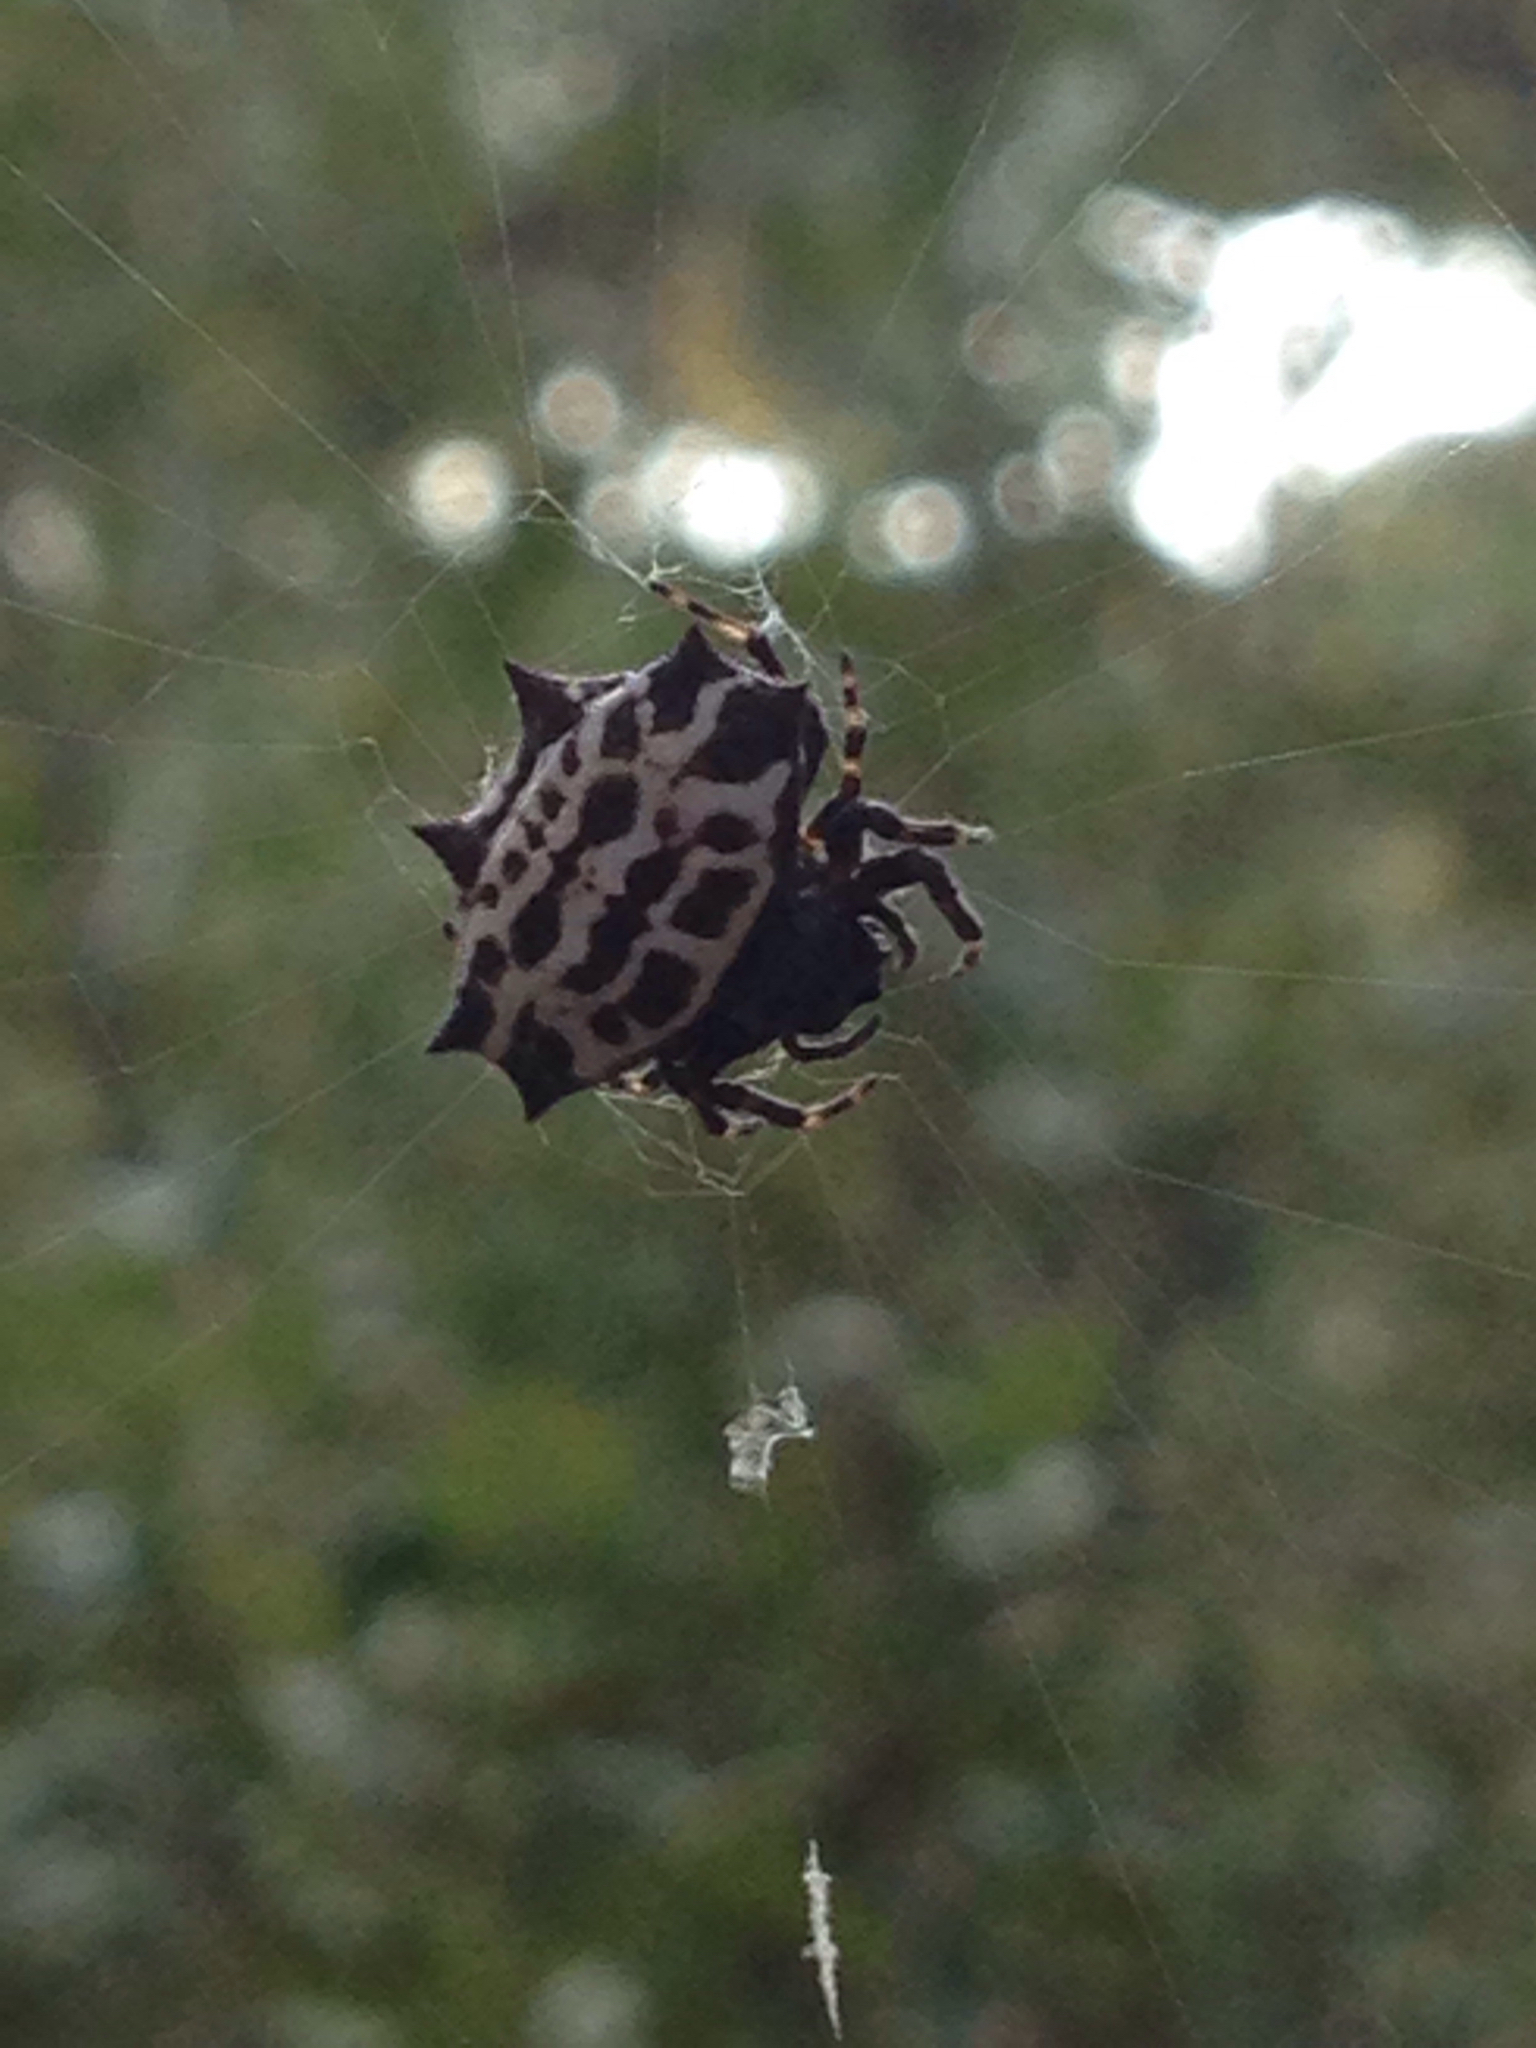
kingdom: Animalia
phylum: Arthropoda
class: Arachnida
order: Araneae
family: Araneidae
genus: Gasteracantha
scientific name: Gasteracantha cancriformis
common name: Orb weavers
